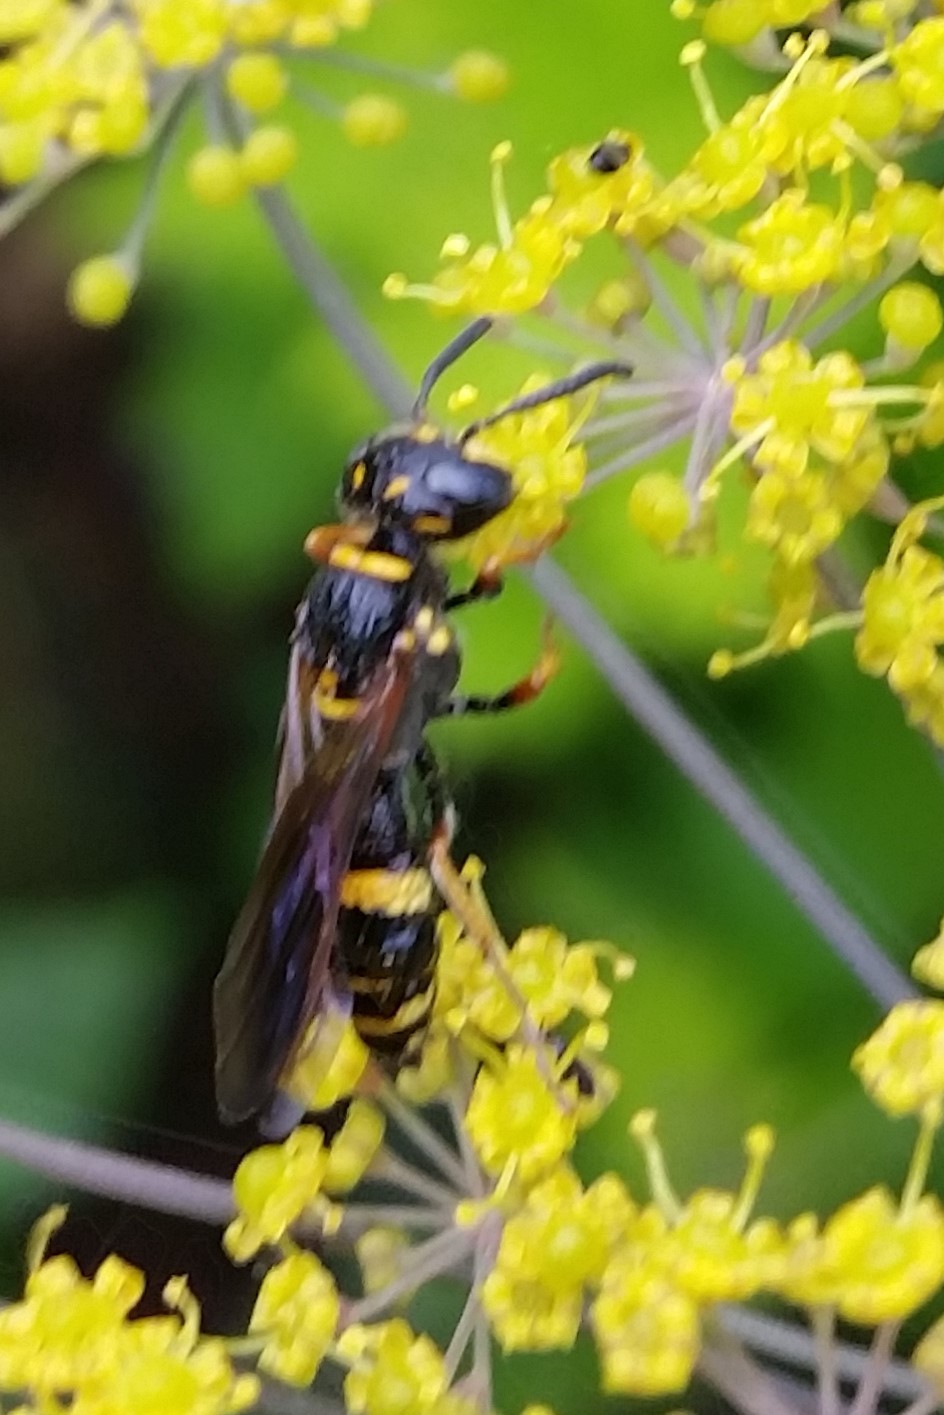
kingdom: Animalia
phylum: Arthropoda
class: Insecta
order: Hymenoptera
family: Crabronidae
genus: Philanthus
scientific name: Philanthus gibbosus
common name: Humped beewolf
